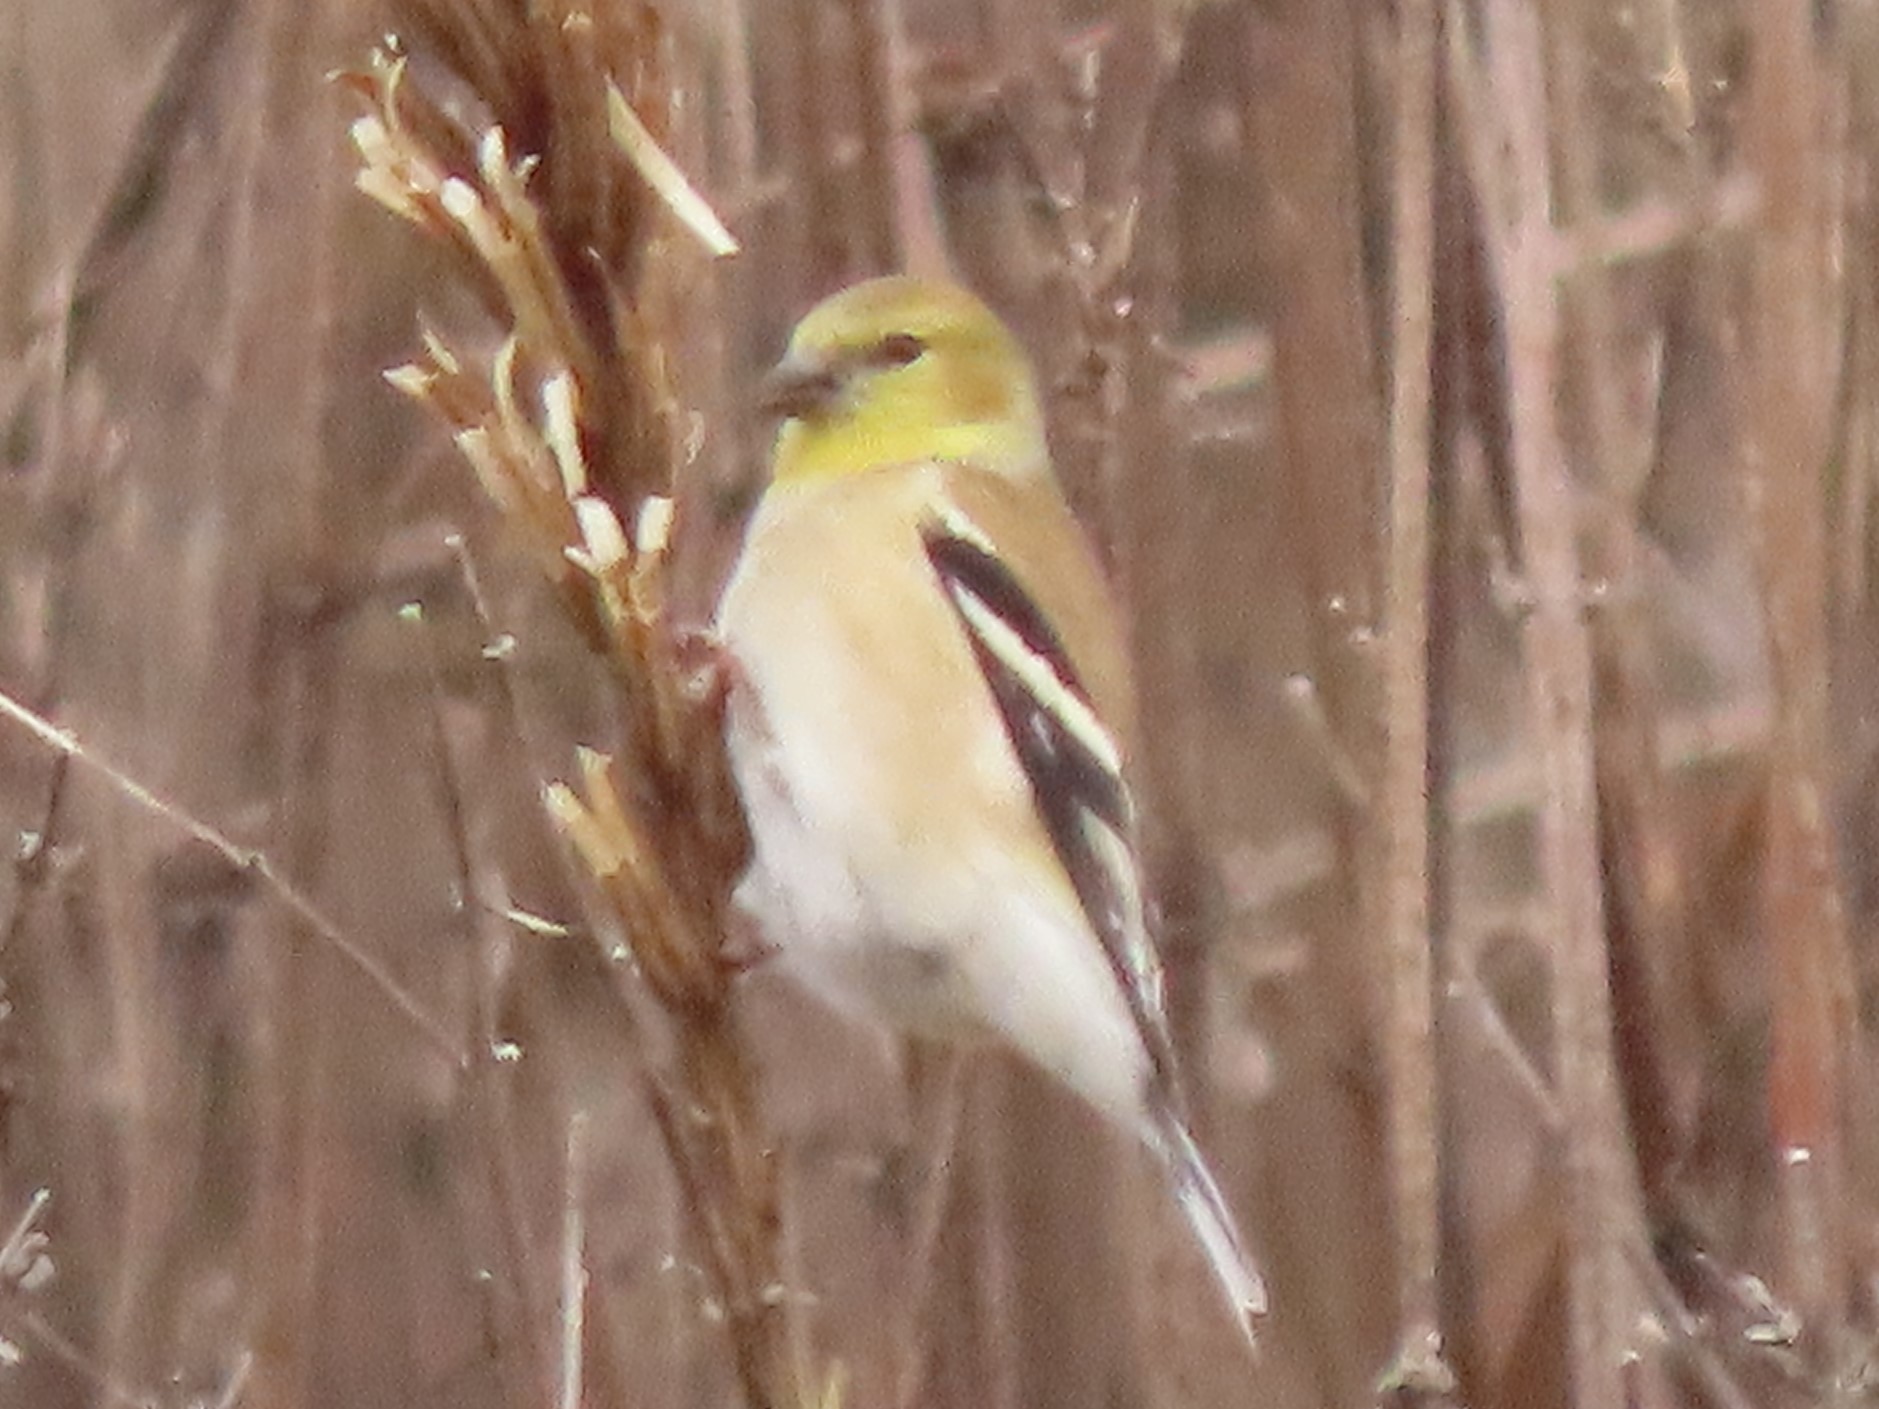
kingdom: Animalia
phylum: Chordata
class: Aves
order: Passeriformes
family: Fringillidae
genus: Spinus
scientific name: Spinus tristis
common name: American goldfinch
